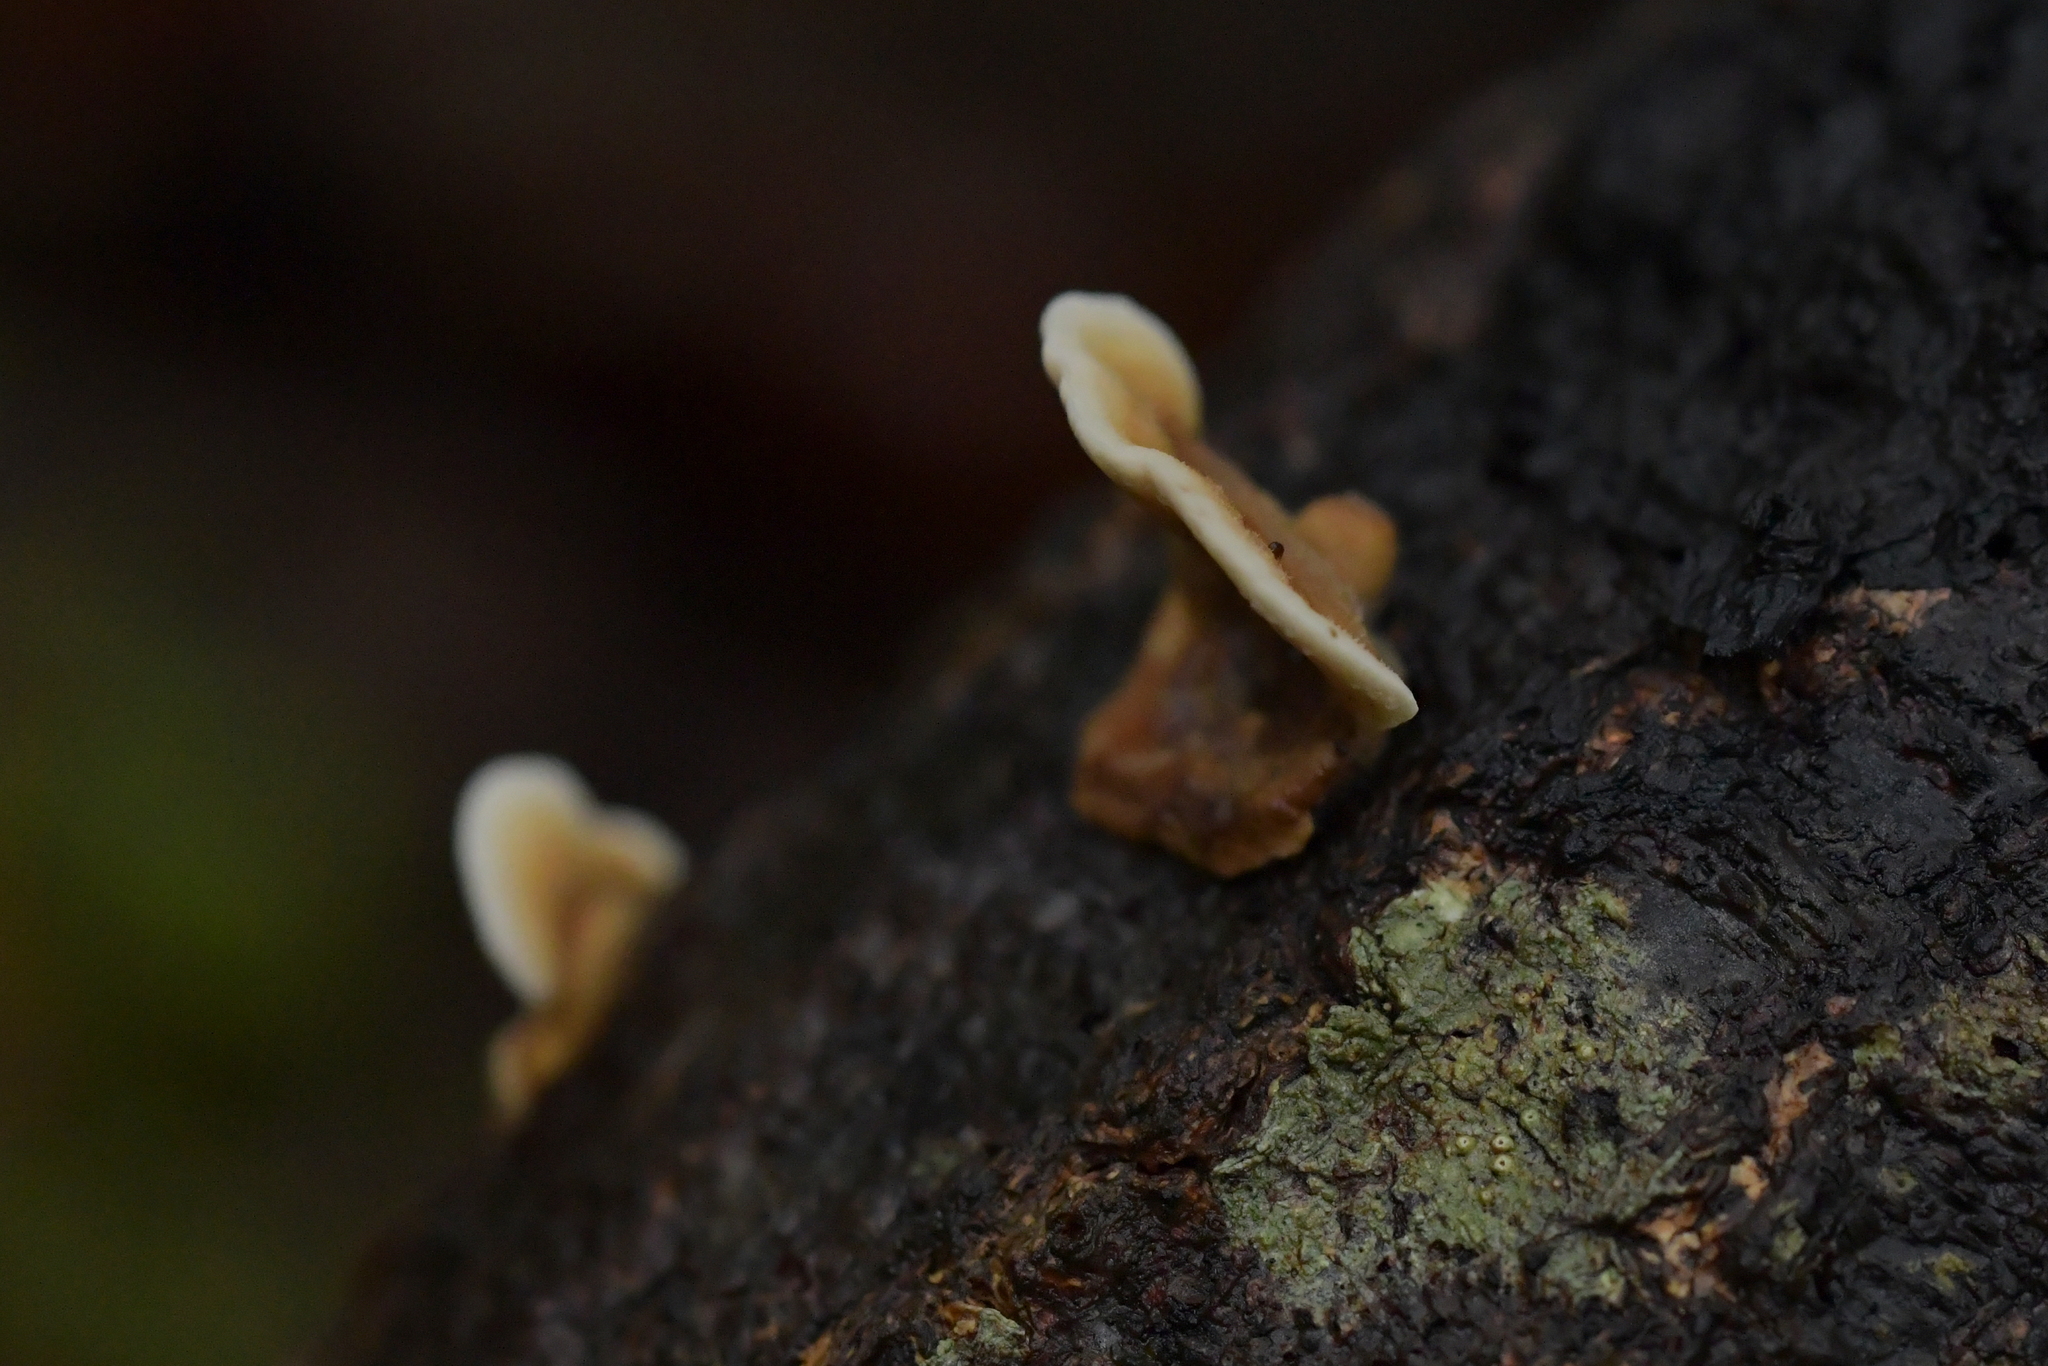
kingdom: Fungi
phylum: Basidiomycota
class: Agaricomycetes
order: Russulales
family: Stereaceae
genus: Stereum
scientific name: Stereum hirsutum
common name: Hairy curtain crust
